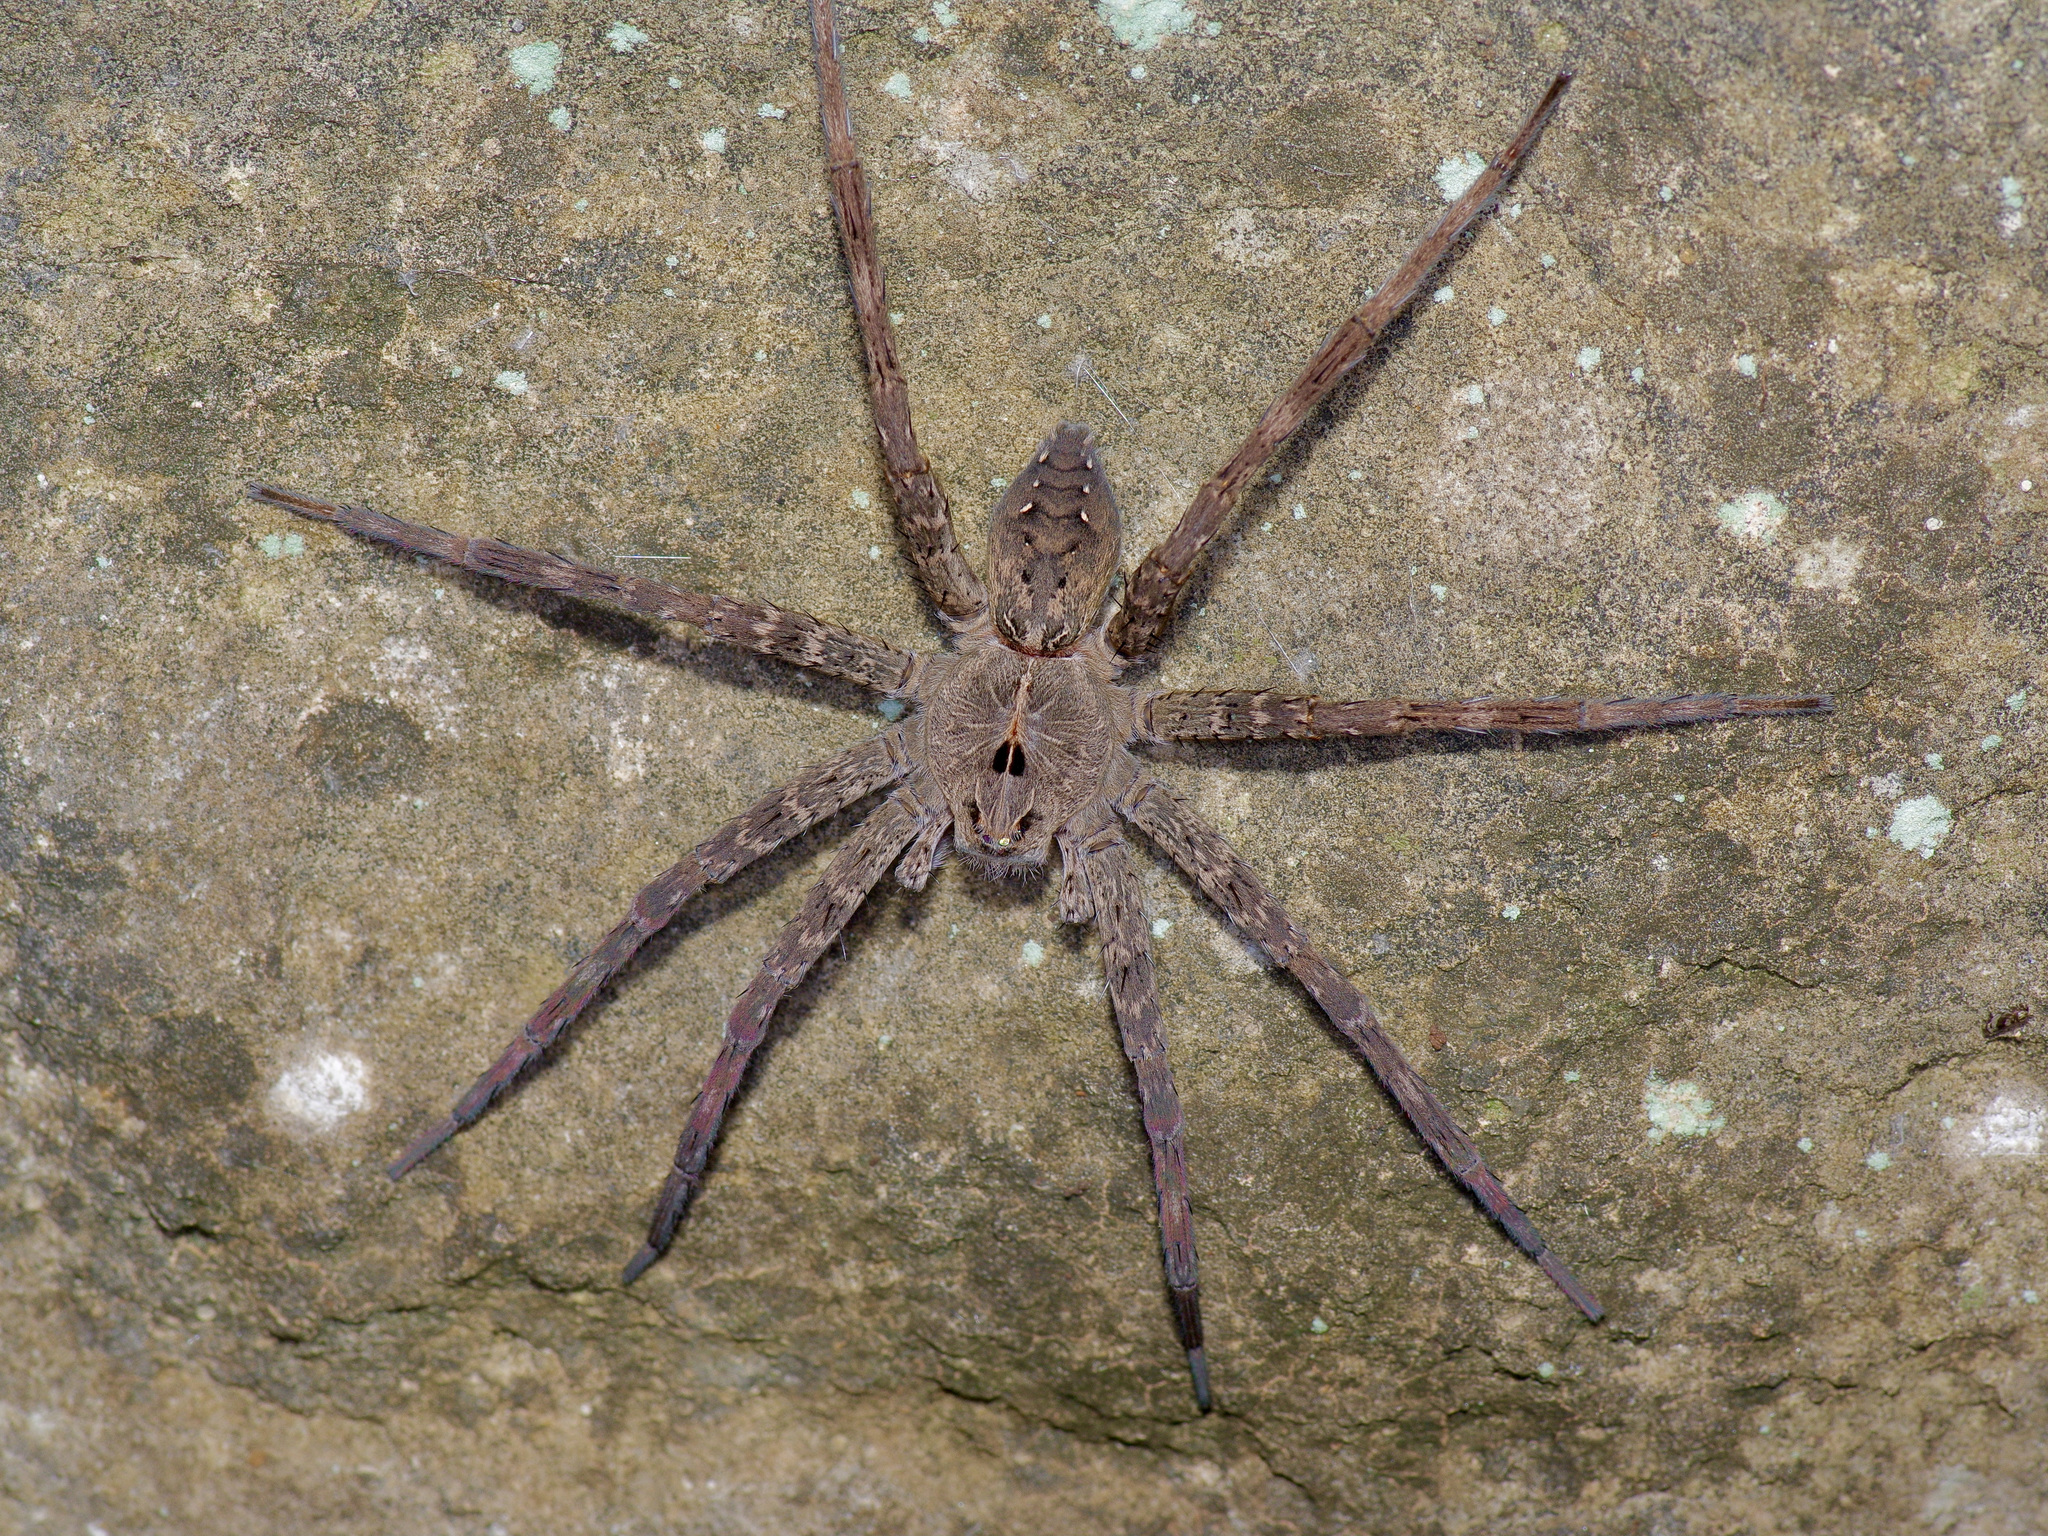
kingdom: Animalia
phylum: Arthropoda
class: Arachnida
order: Araneae
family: Pisauridae
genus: Dolomedes
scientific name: Dolomedes vittatus
